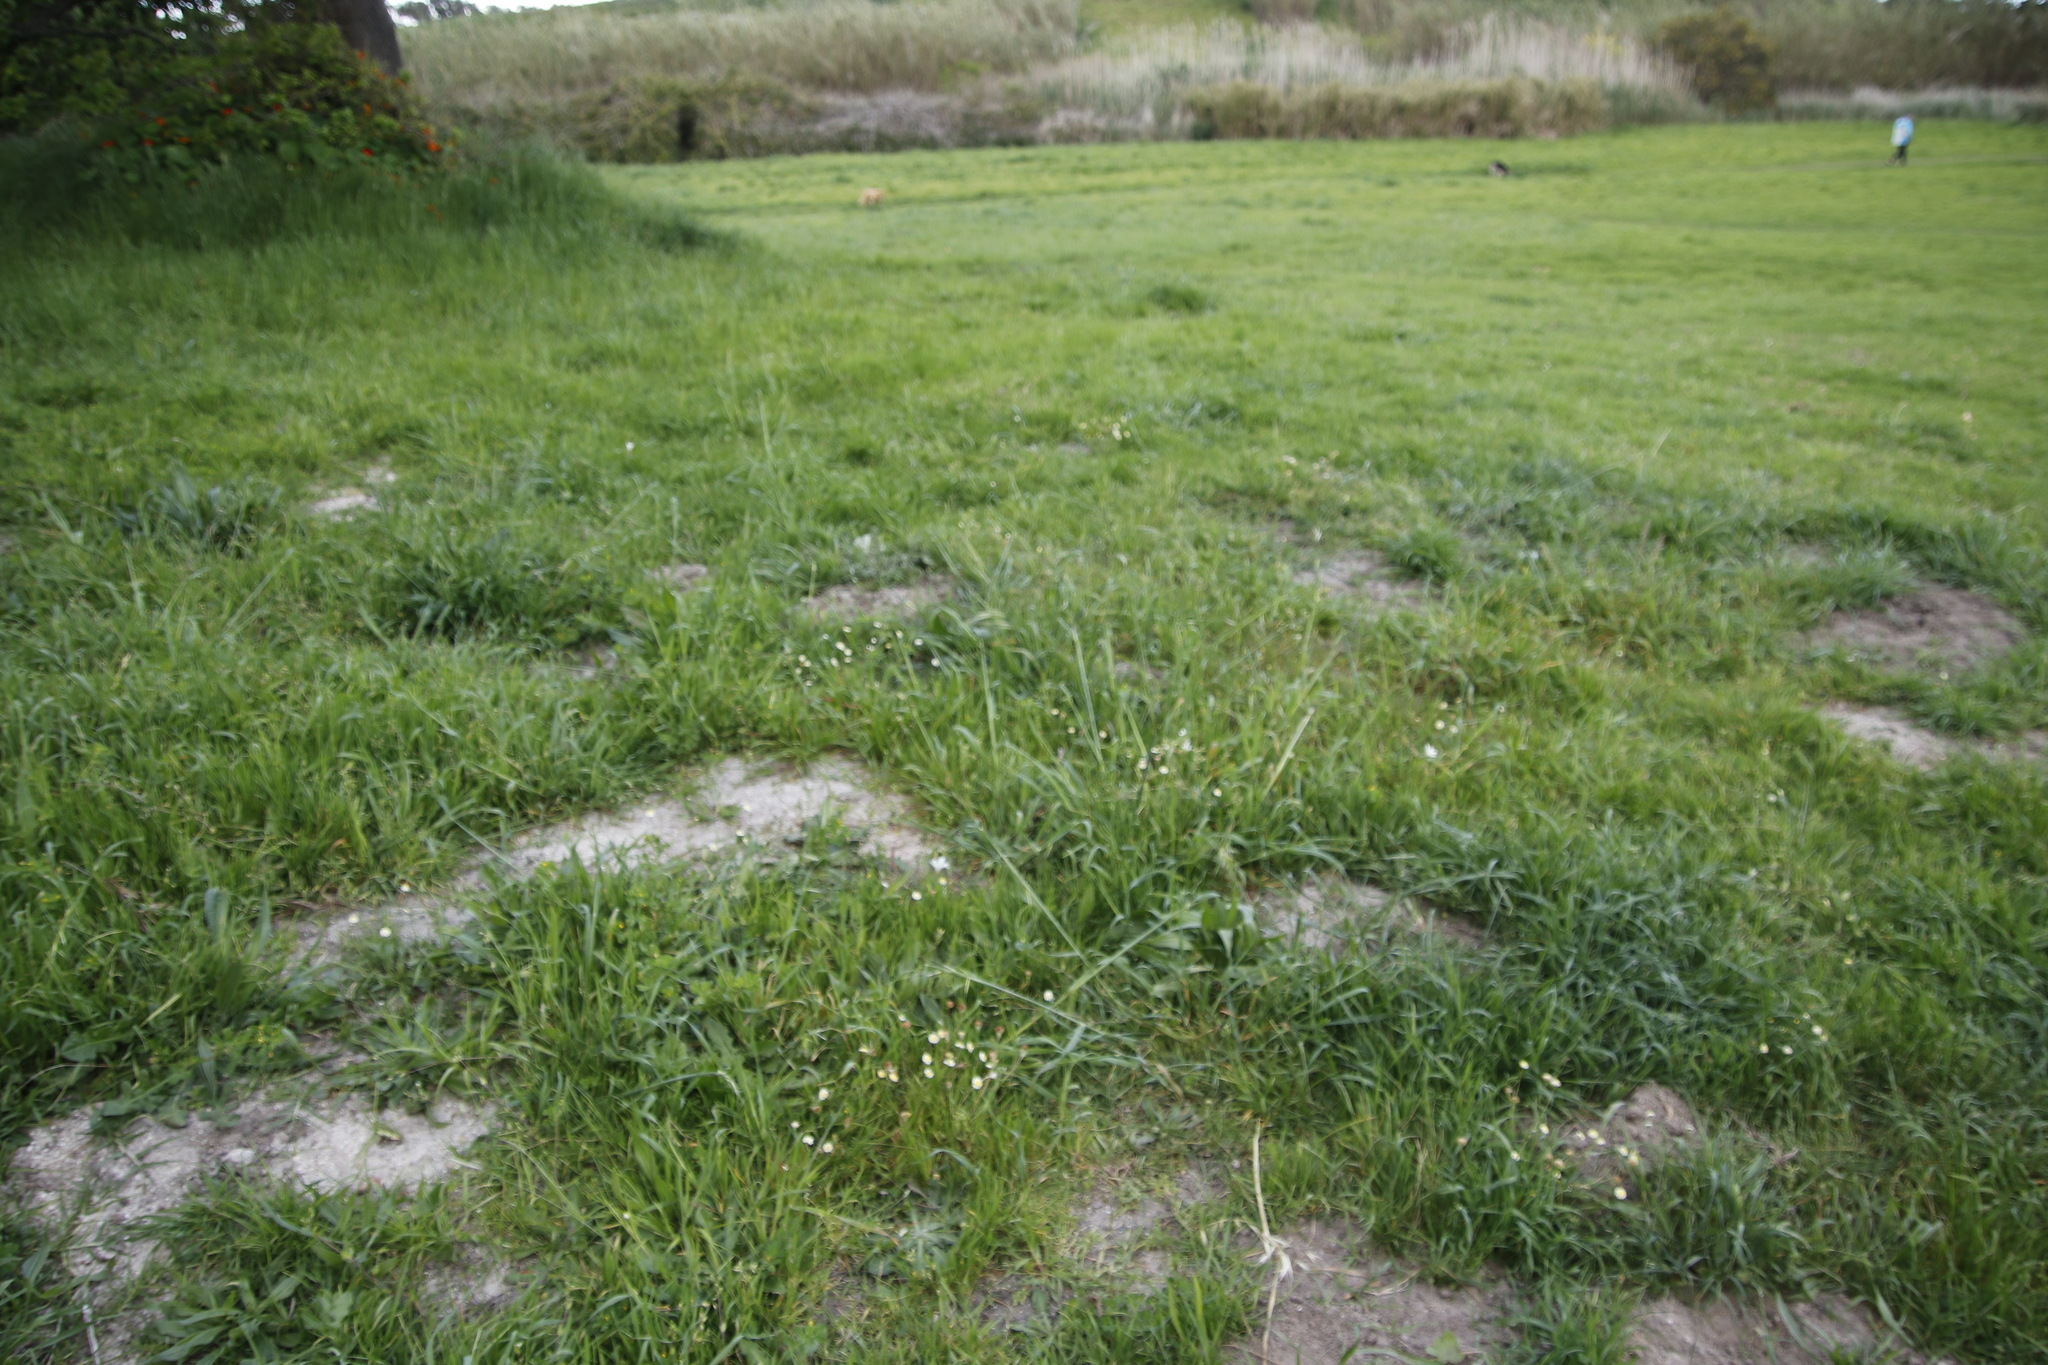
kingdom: Plantae
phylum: Tracheophyta
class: Magnoliopsida
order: Asterales
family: Asteraceae
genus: Cotula
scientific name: Cotula turbinata
